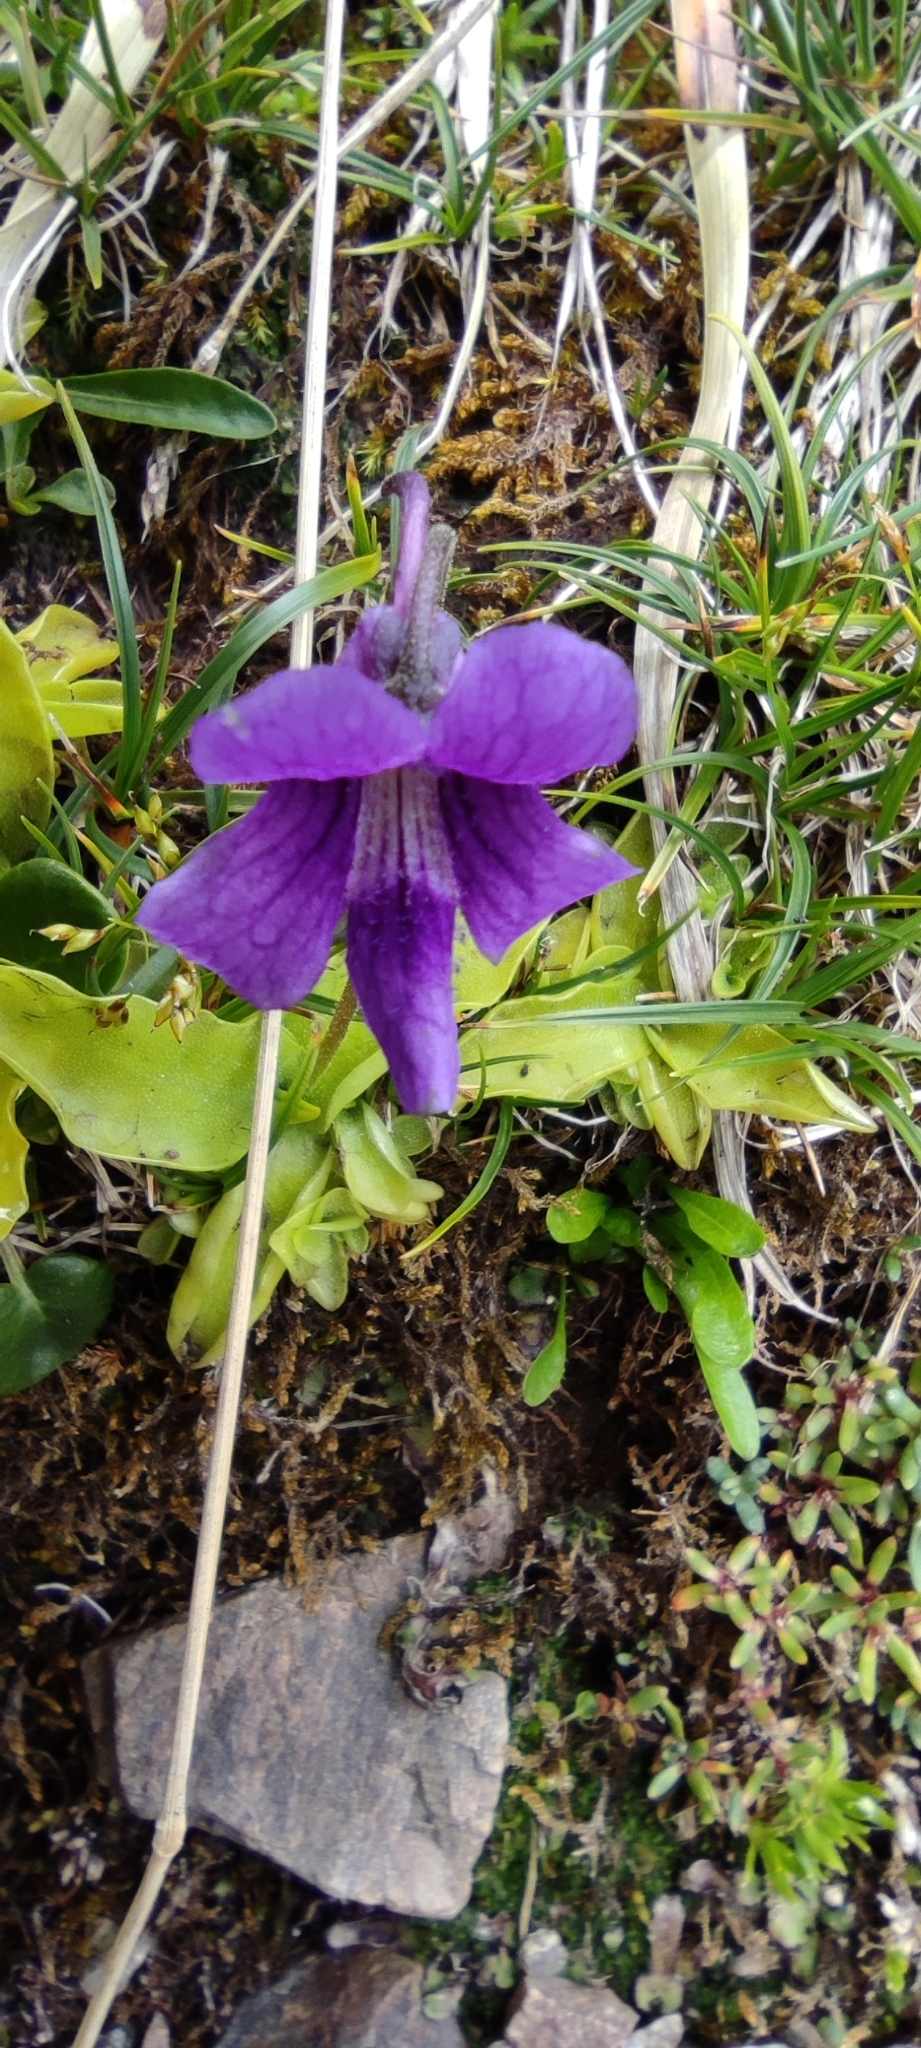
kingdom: Plantae
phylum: Tracheophyta
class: Magnoliopsida
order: Lamiales
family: Lentibulariaceae
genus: Pinguicula
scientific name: Pinguicula grandiflora
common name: Large-flowered butterwort
